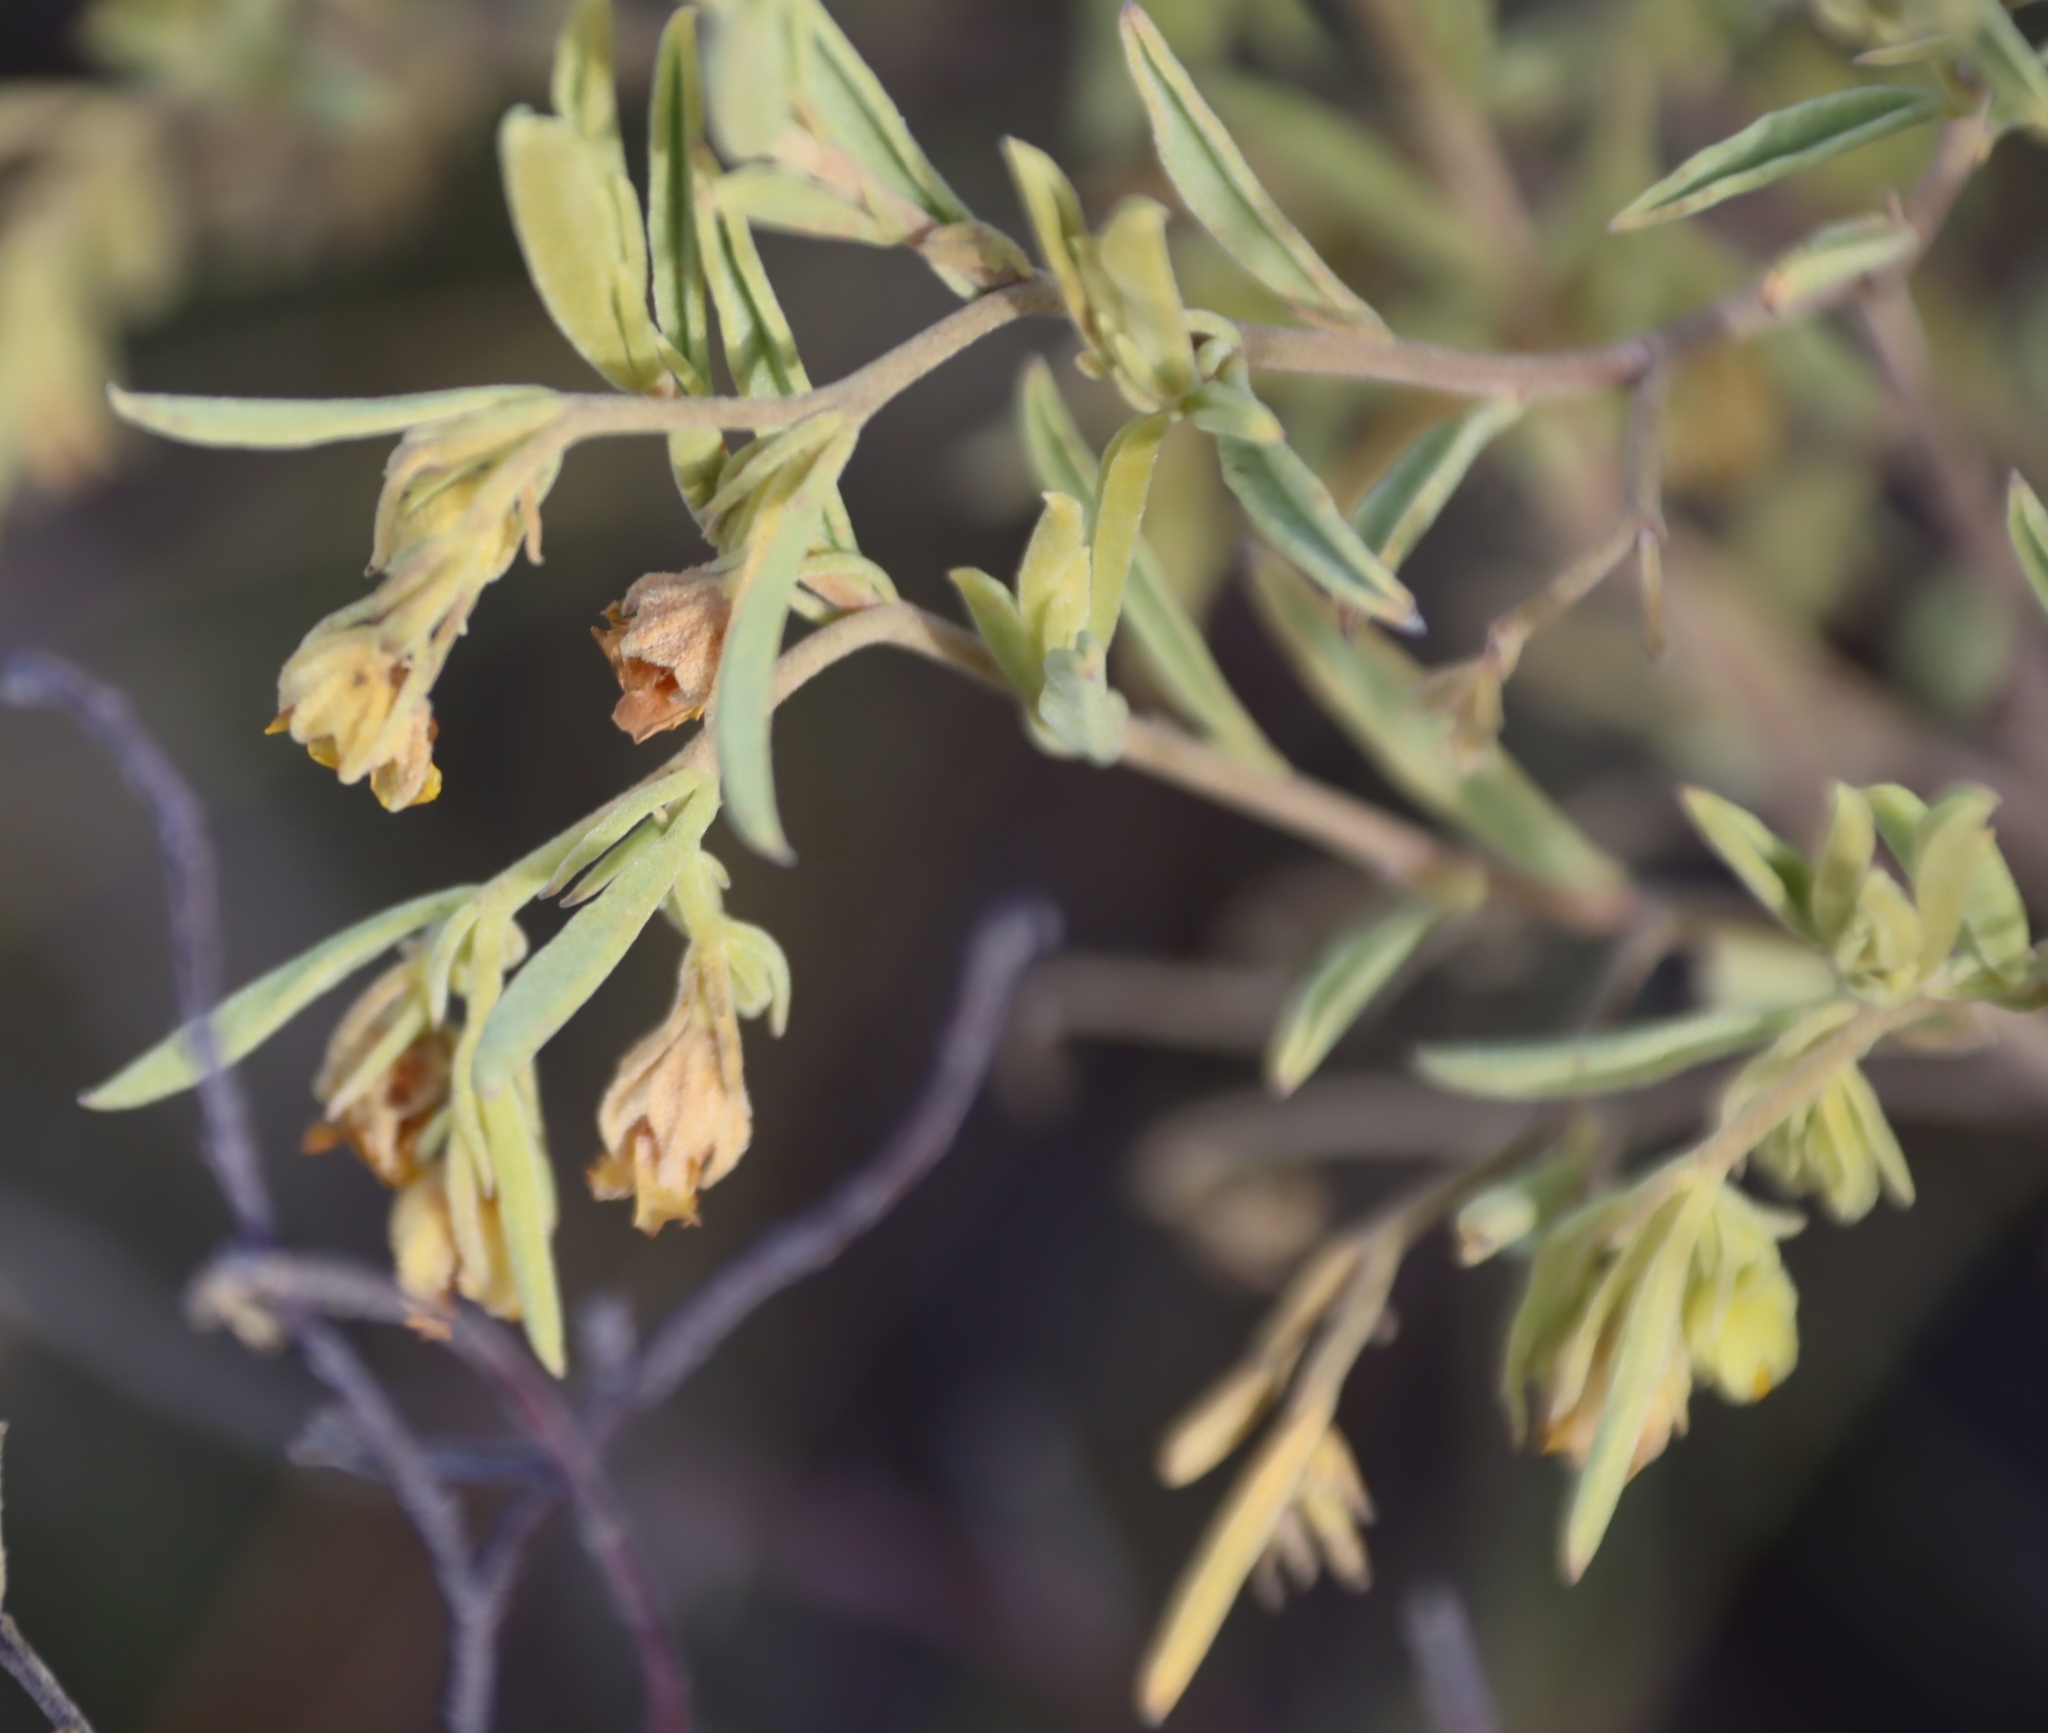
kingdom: Plantae
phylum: Tracheophyta
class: Magnoliopsida
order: Malvales
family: Malvaceae
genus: Hermannia
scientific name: Hermannia velutina
